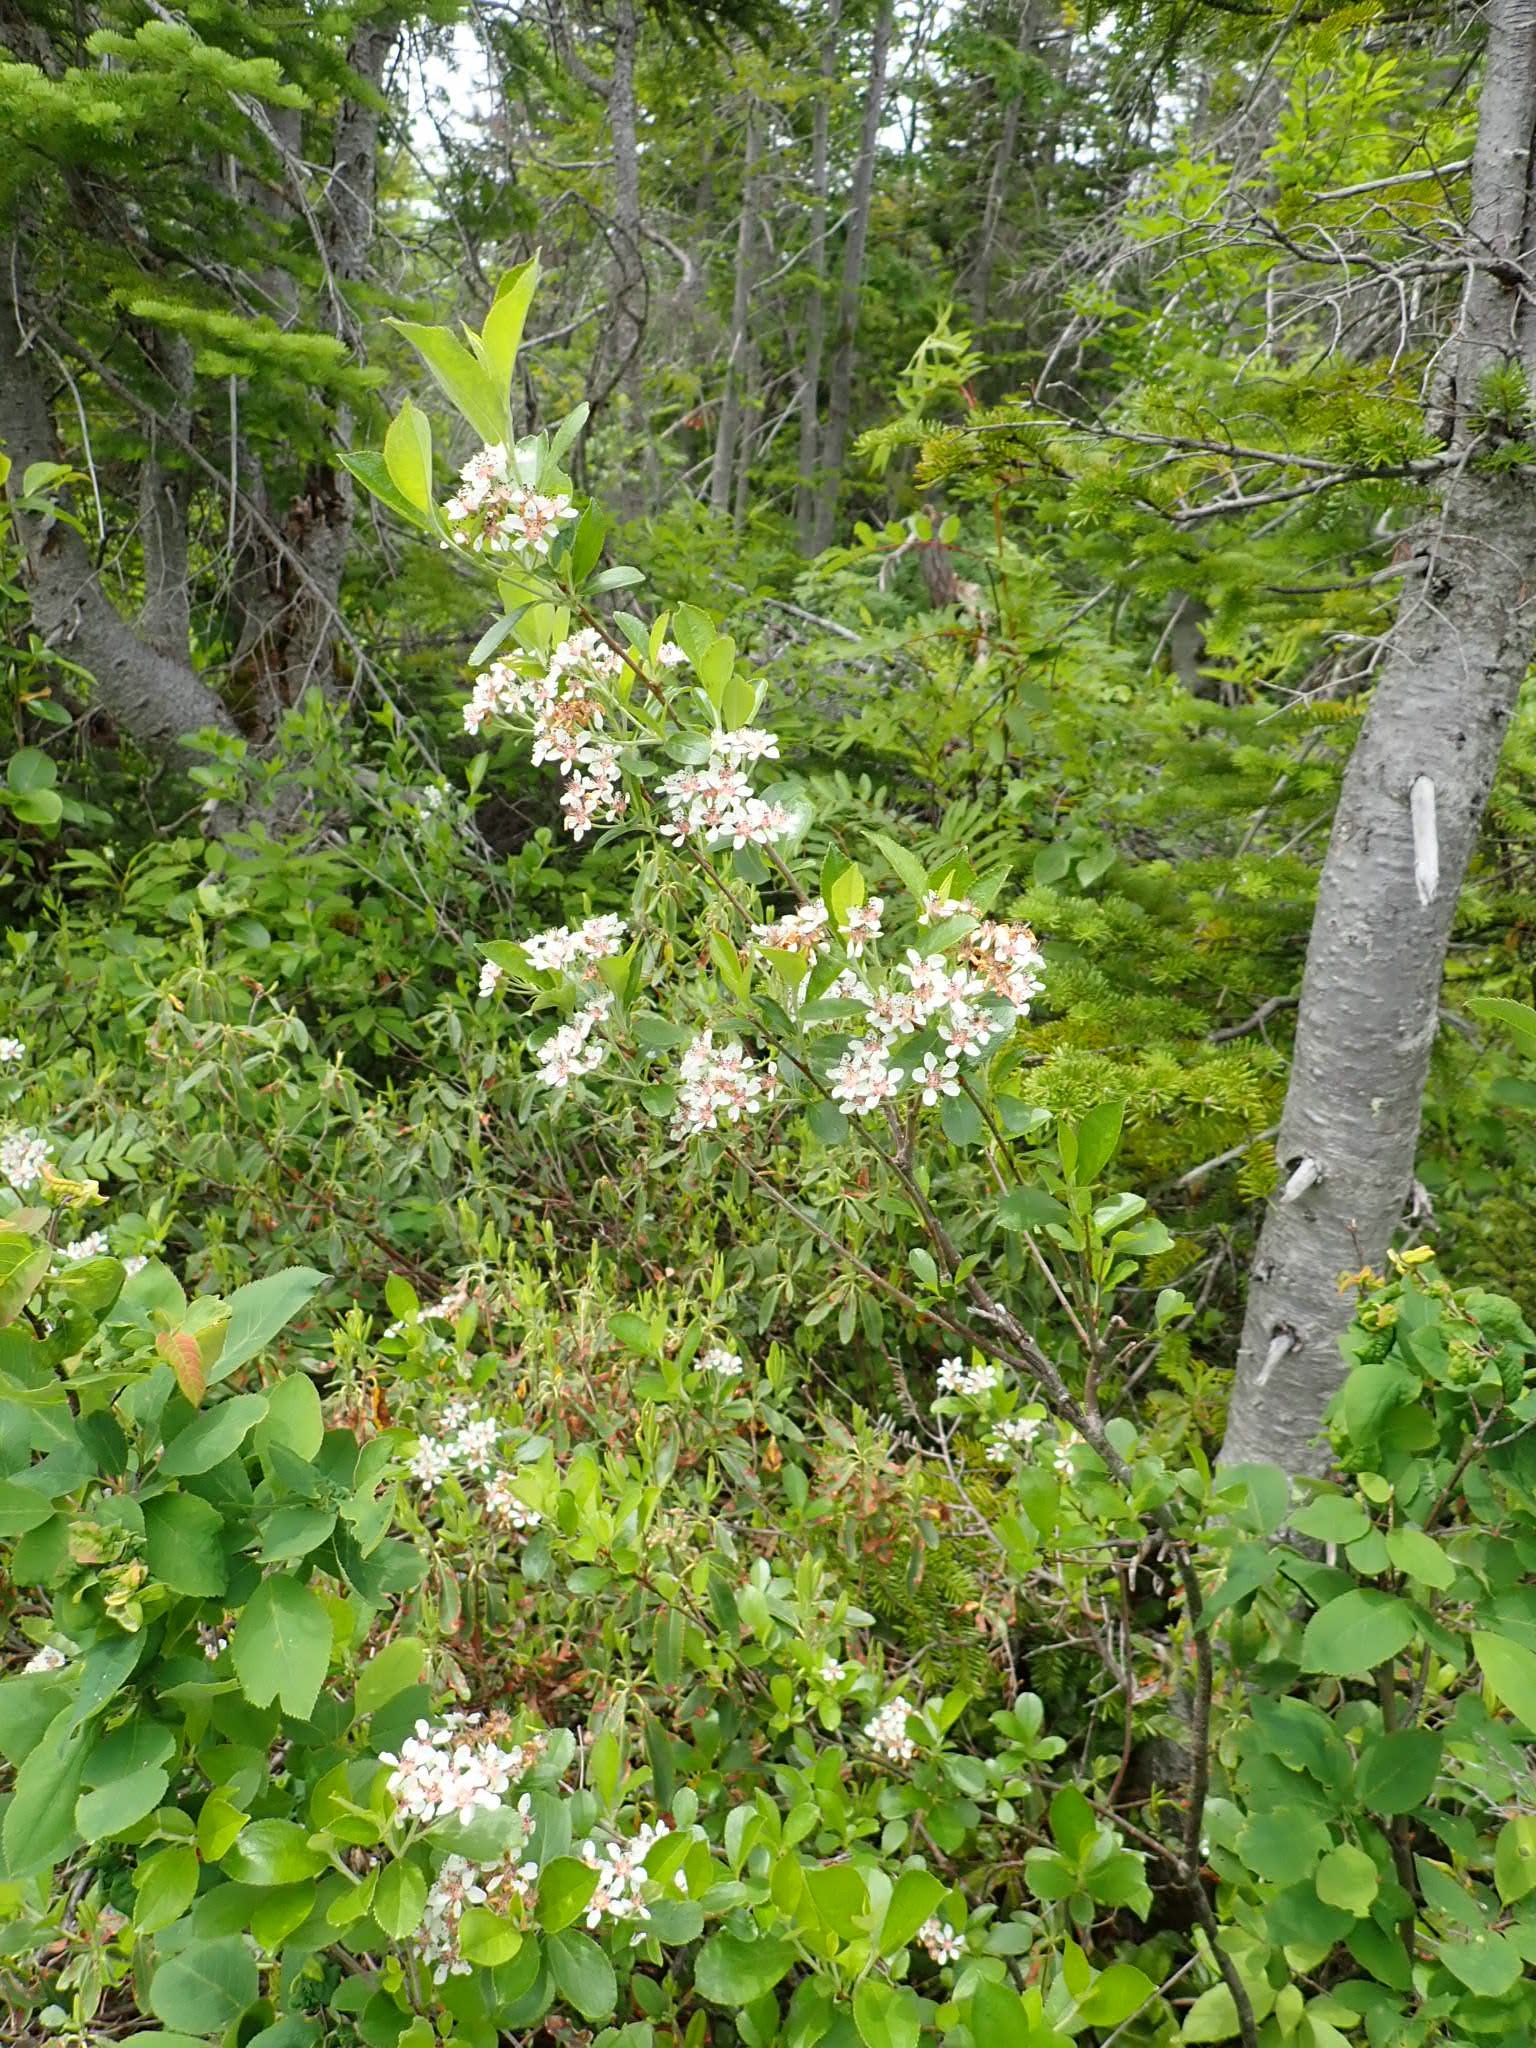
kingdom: Plantae
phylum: Tracheophyta
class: Magnoliopsida
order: Rosales
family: Rosaceae
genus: Aronia
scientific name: Aronia melanocarpa
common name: Black chokeberry
